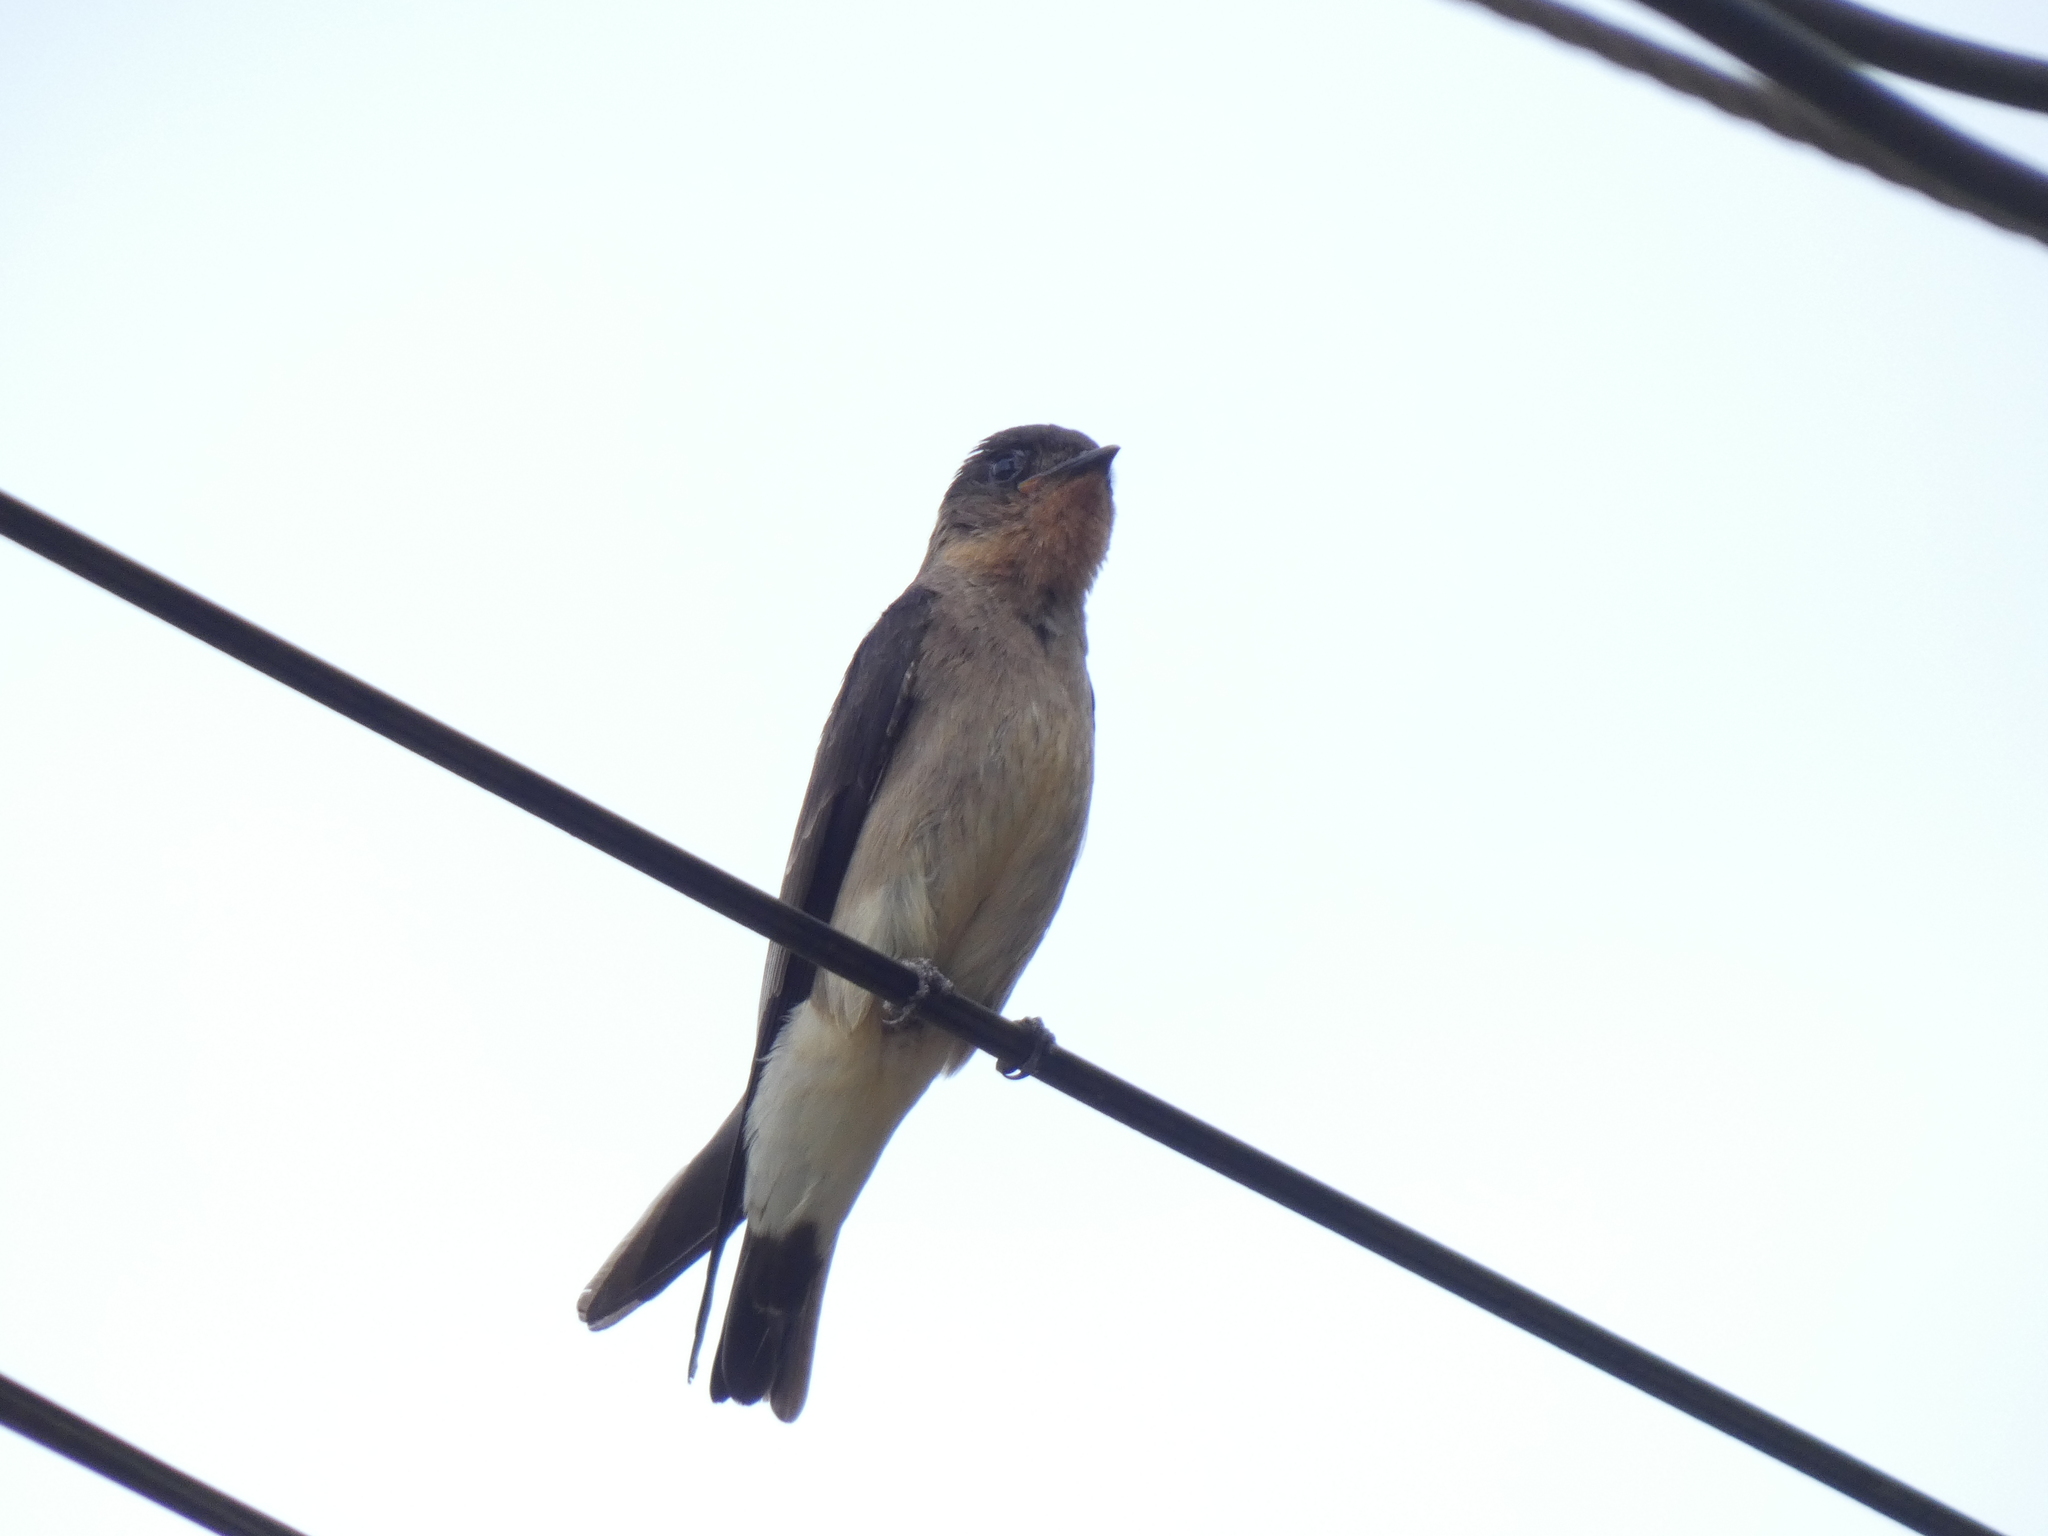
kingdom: Animalia
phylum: Chordata
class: Aves
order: Passeriformes
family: Hirundinidae
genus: Stelgidopteryx
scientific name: Stelgidopteryx ruficollis
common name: Southern rough-winged swallow
